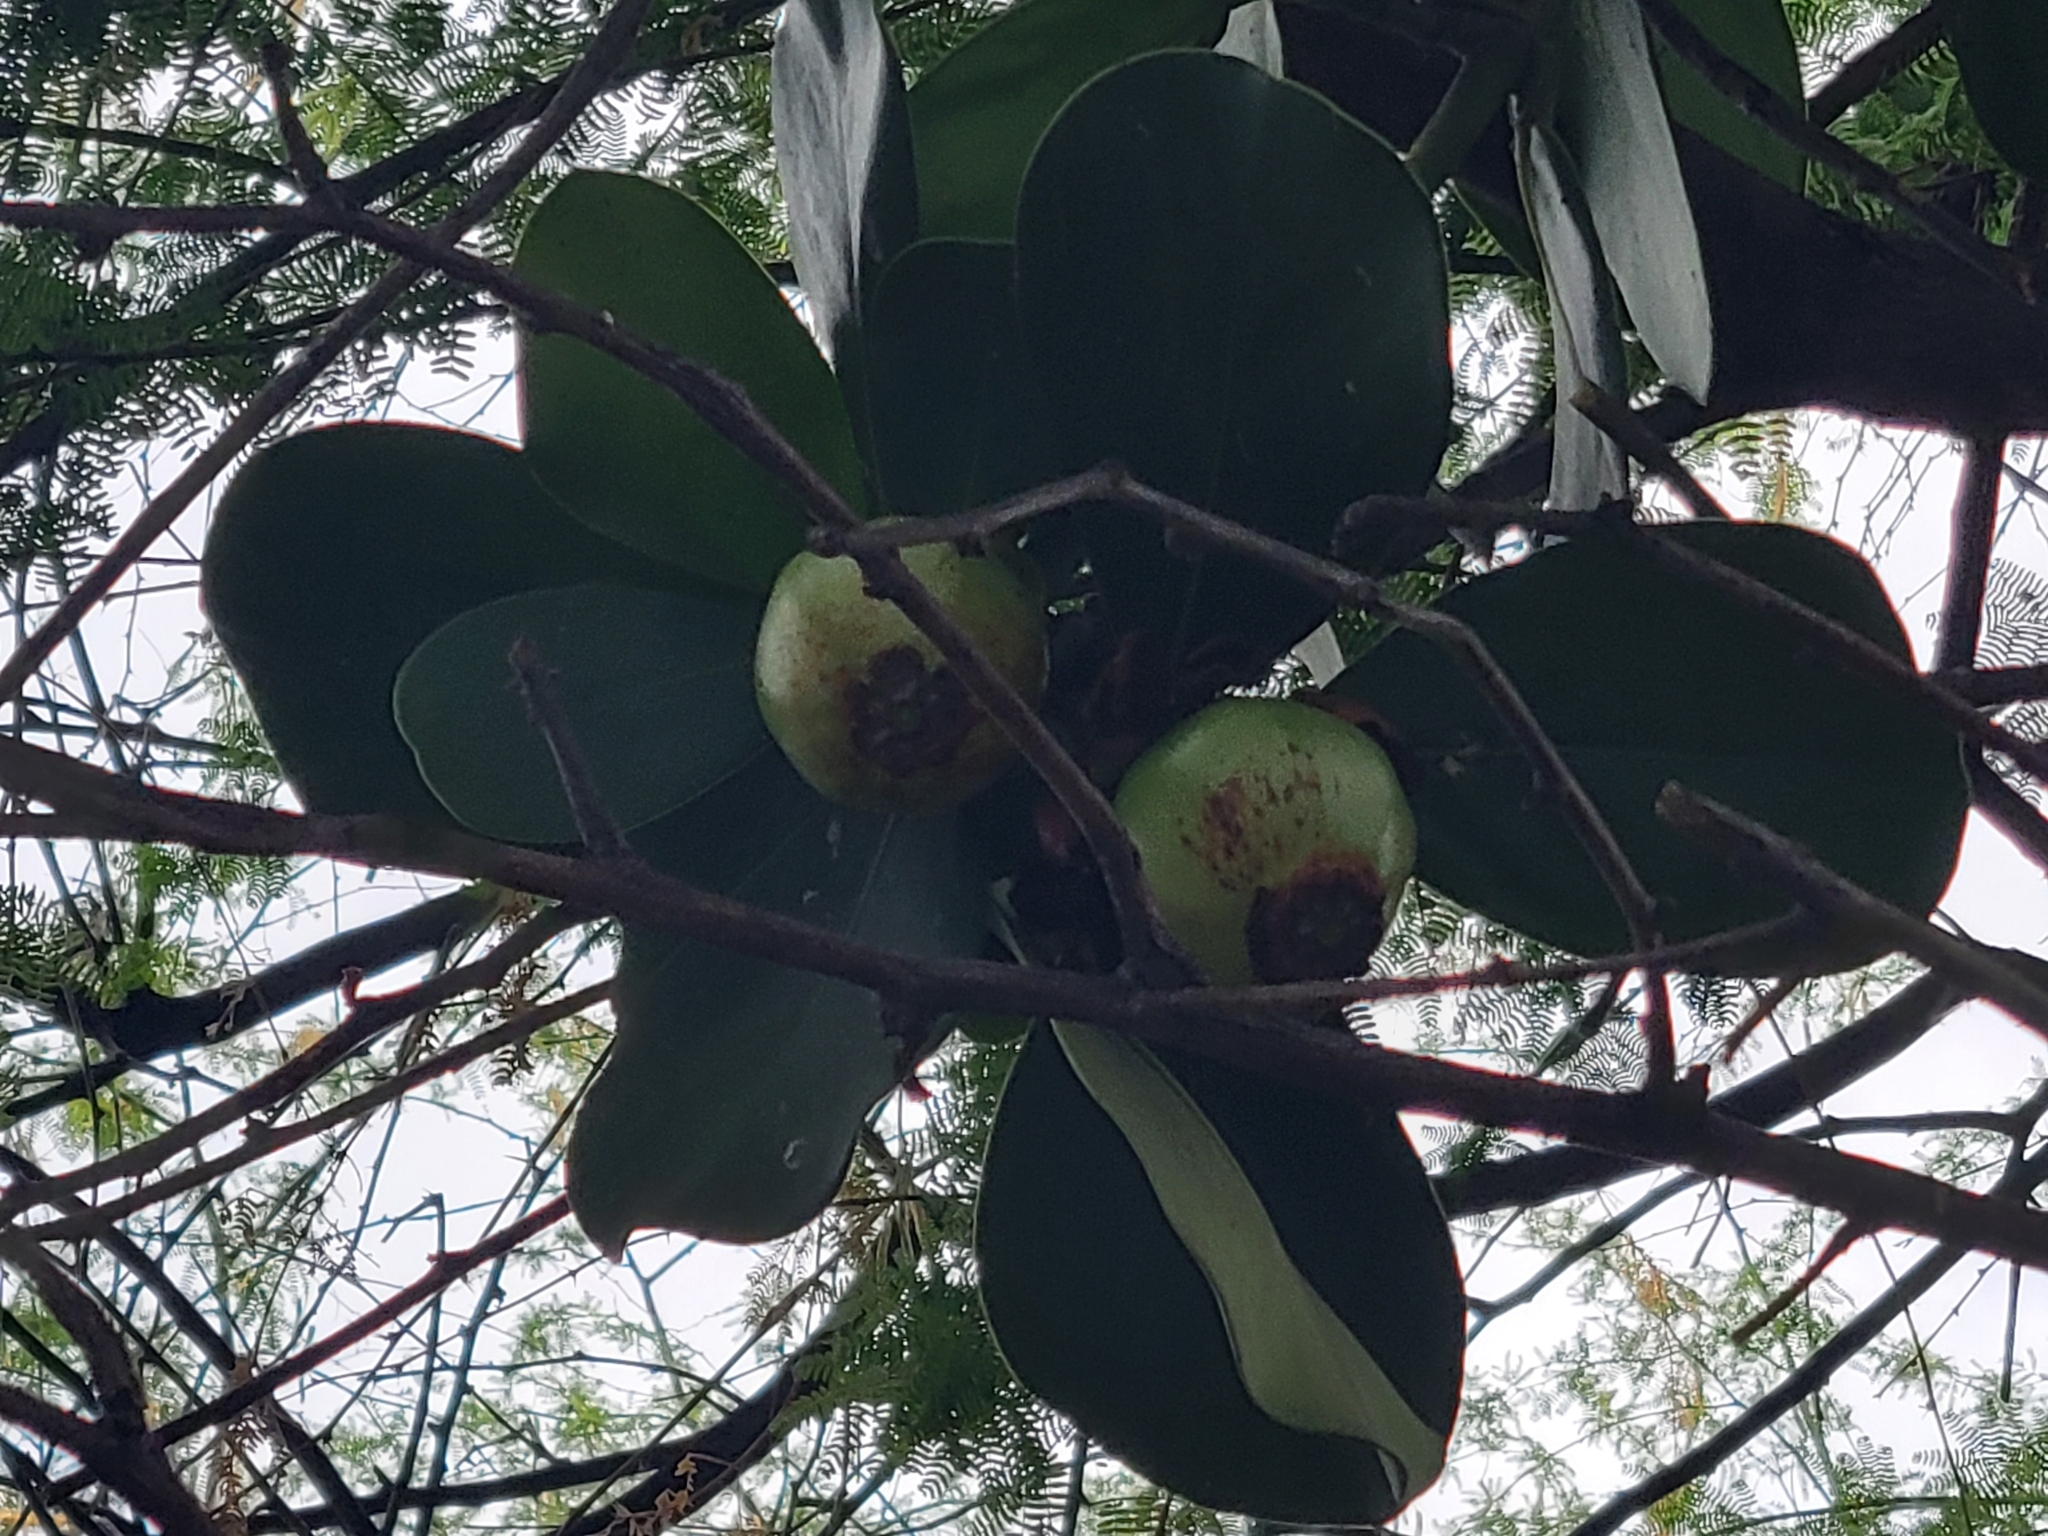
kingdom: Plantae
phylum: Tracheophyta
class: Magnoliopsida
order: Malpighiales
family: Clusiaceae
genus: Clusia
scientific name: Clusia rosea
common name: Scotch attorney
